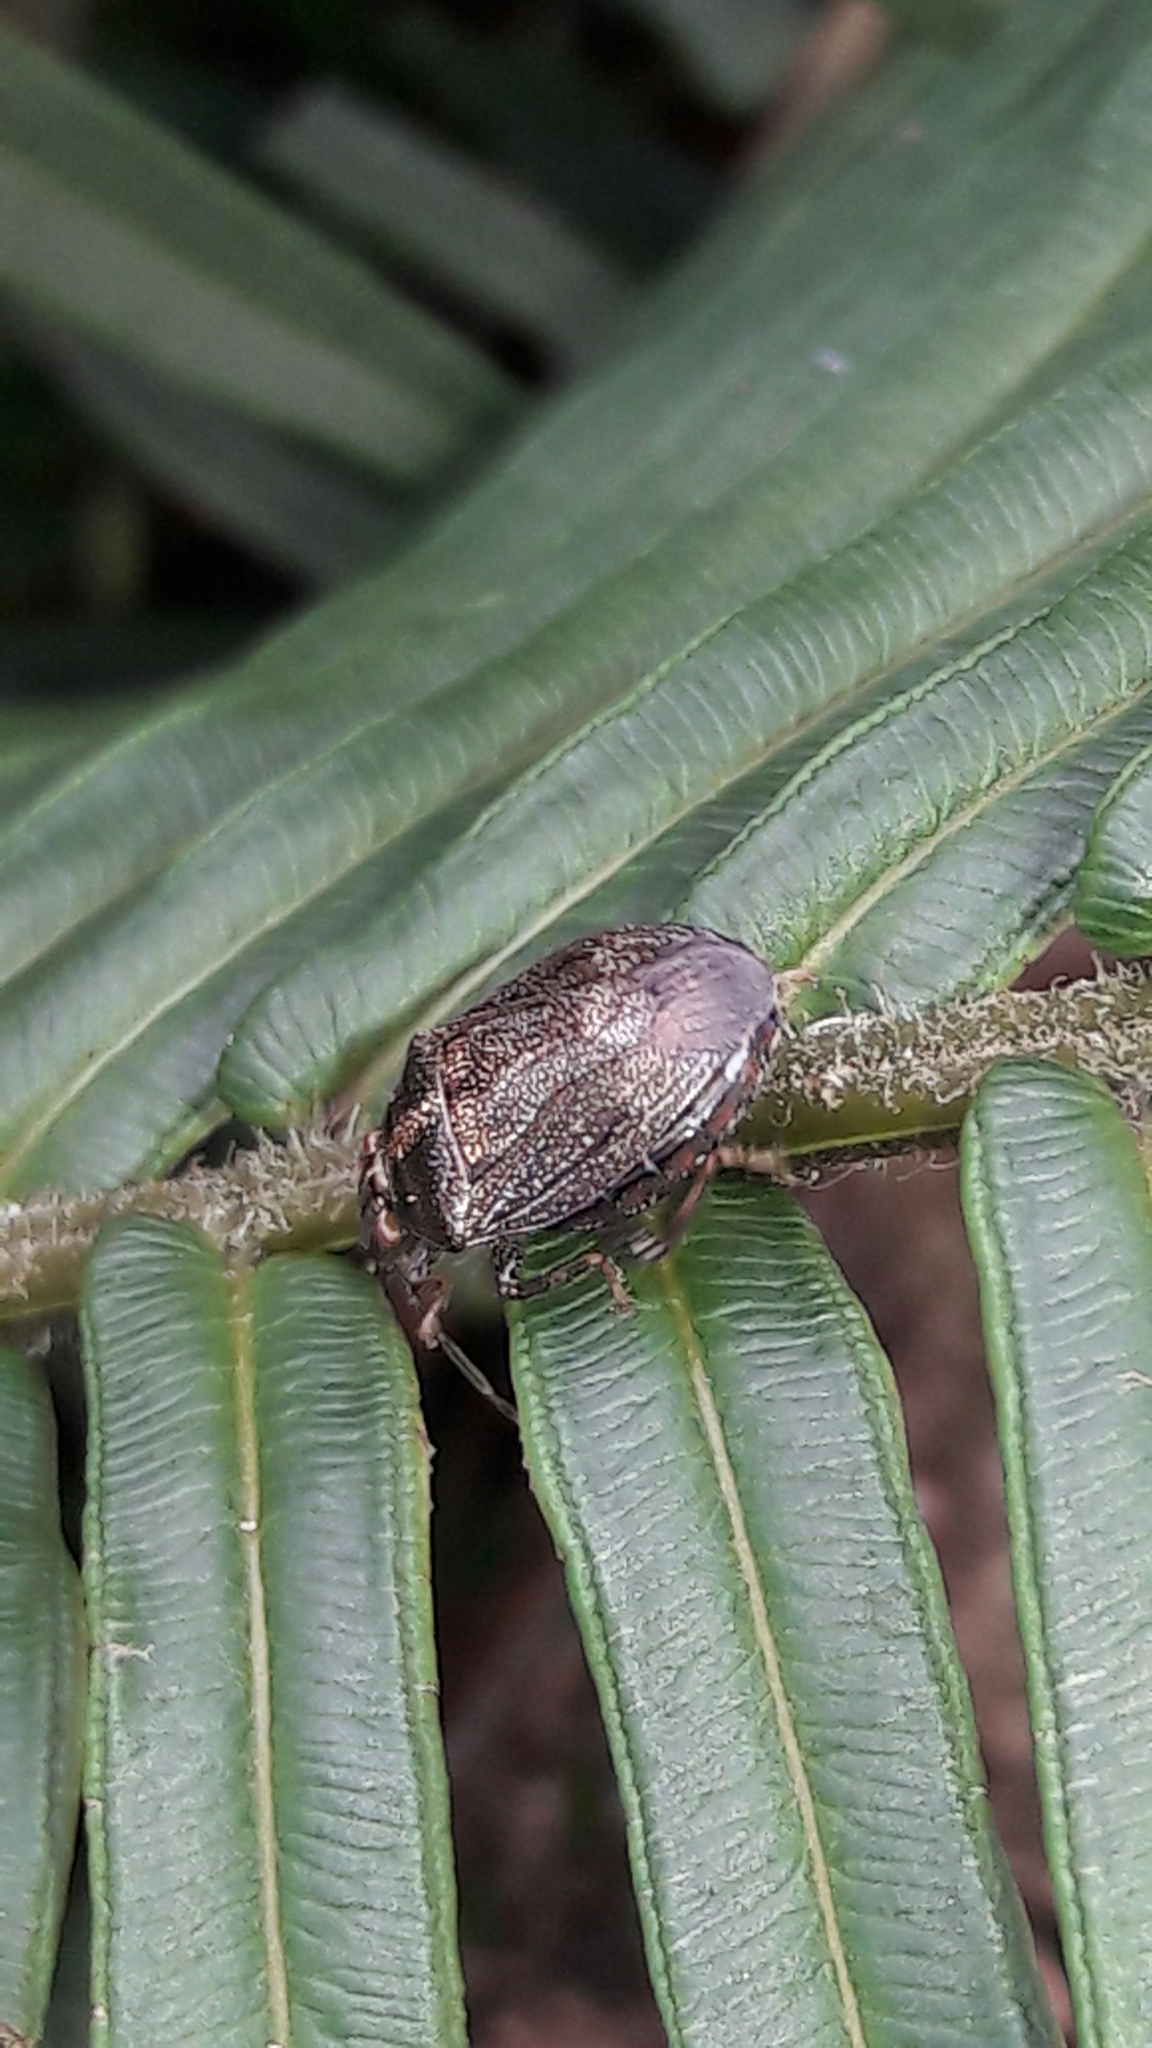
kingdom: Animalia
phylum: Arthropoda
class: Insecta
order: Hemiptera
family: Pentatomidae
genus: Antiteuchus
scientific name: Antiteuchus tripterus
